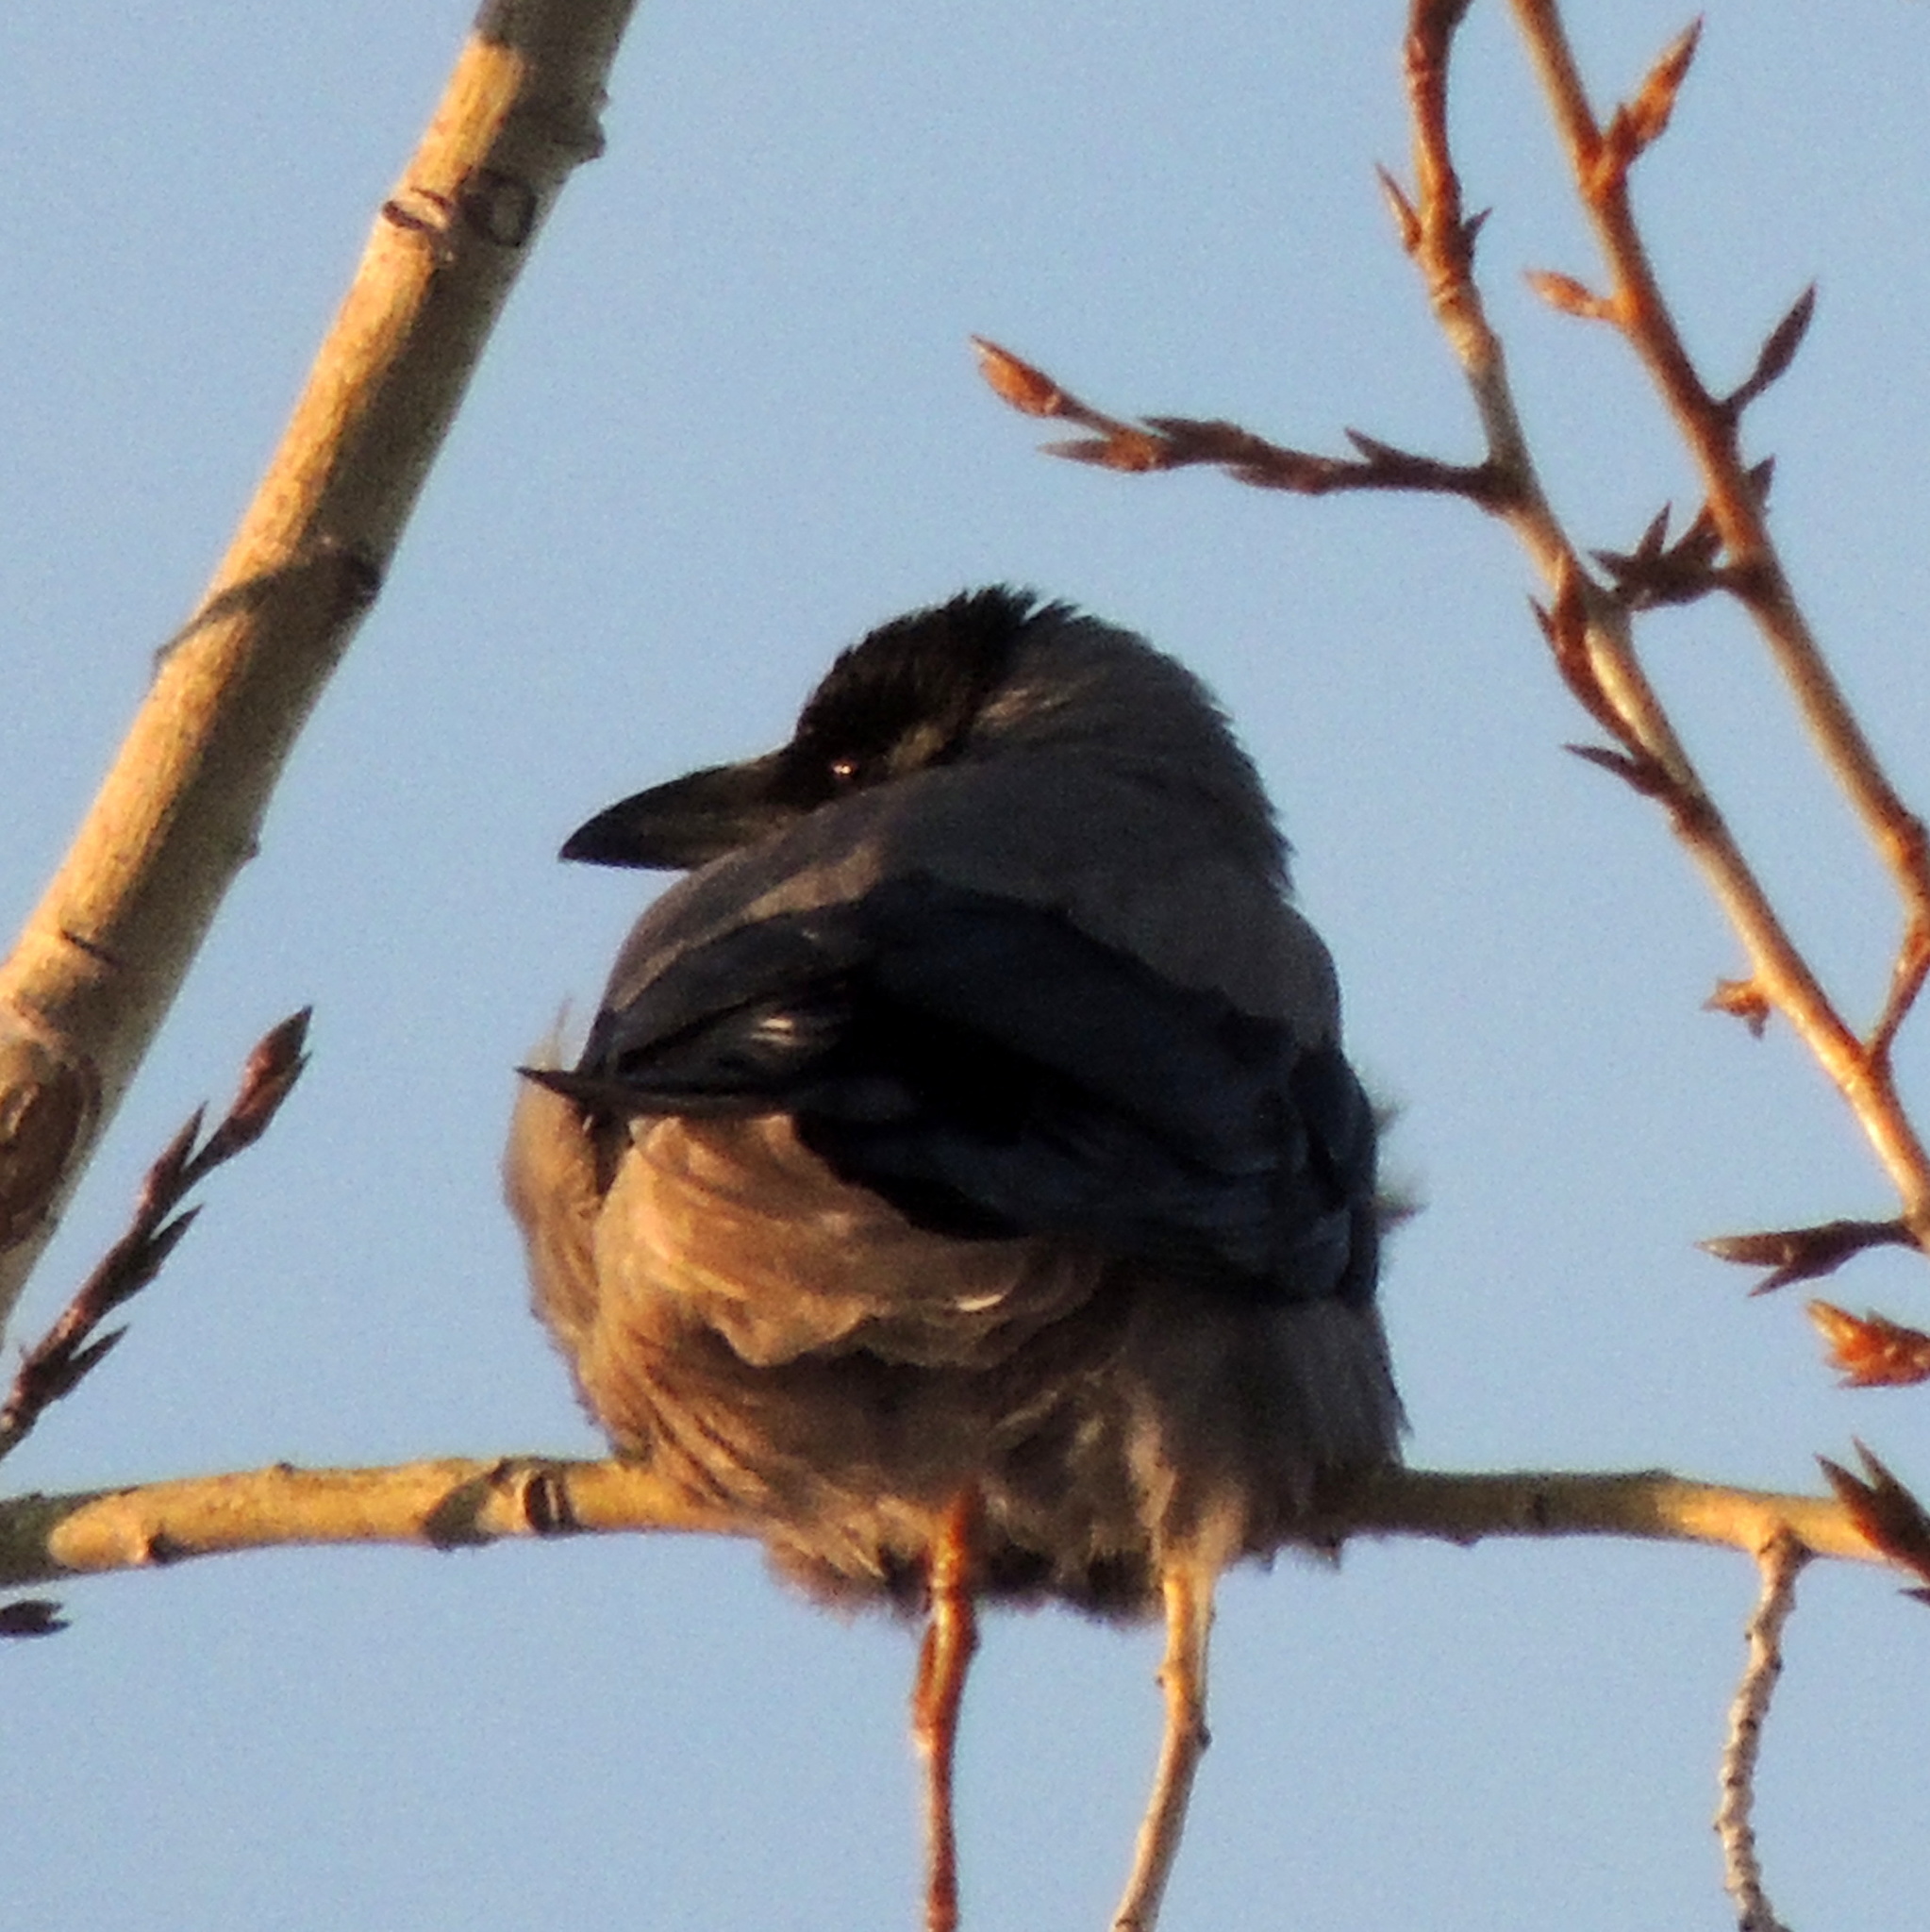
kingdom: Animalia
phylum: Chordata
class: Aves
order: Passeriformes
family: Corvidae
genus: Corvus
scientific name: Corvus cornix
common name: Hooded crow
